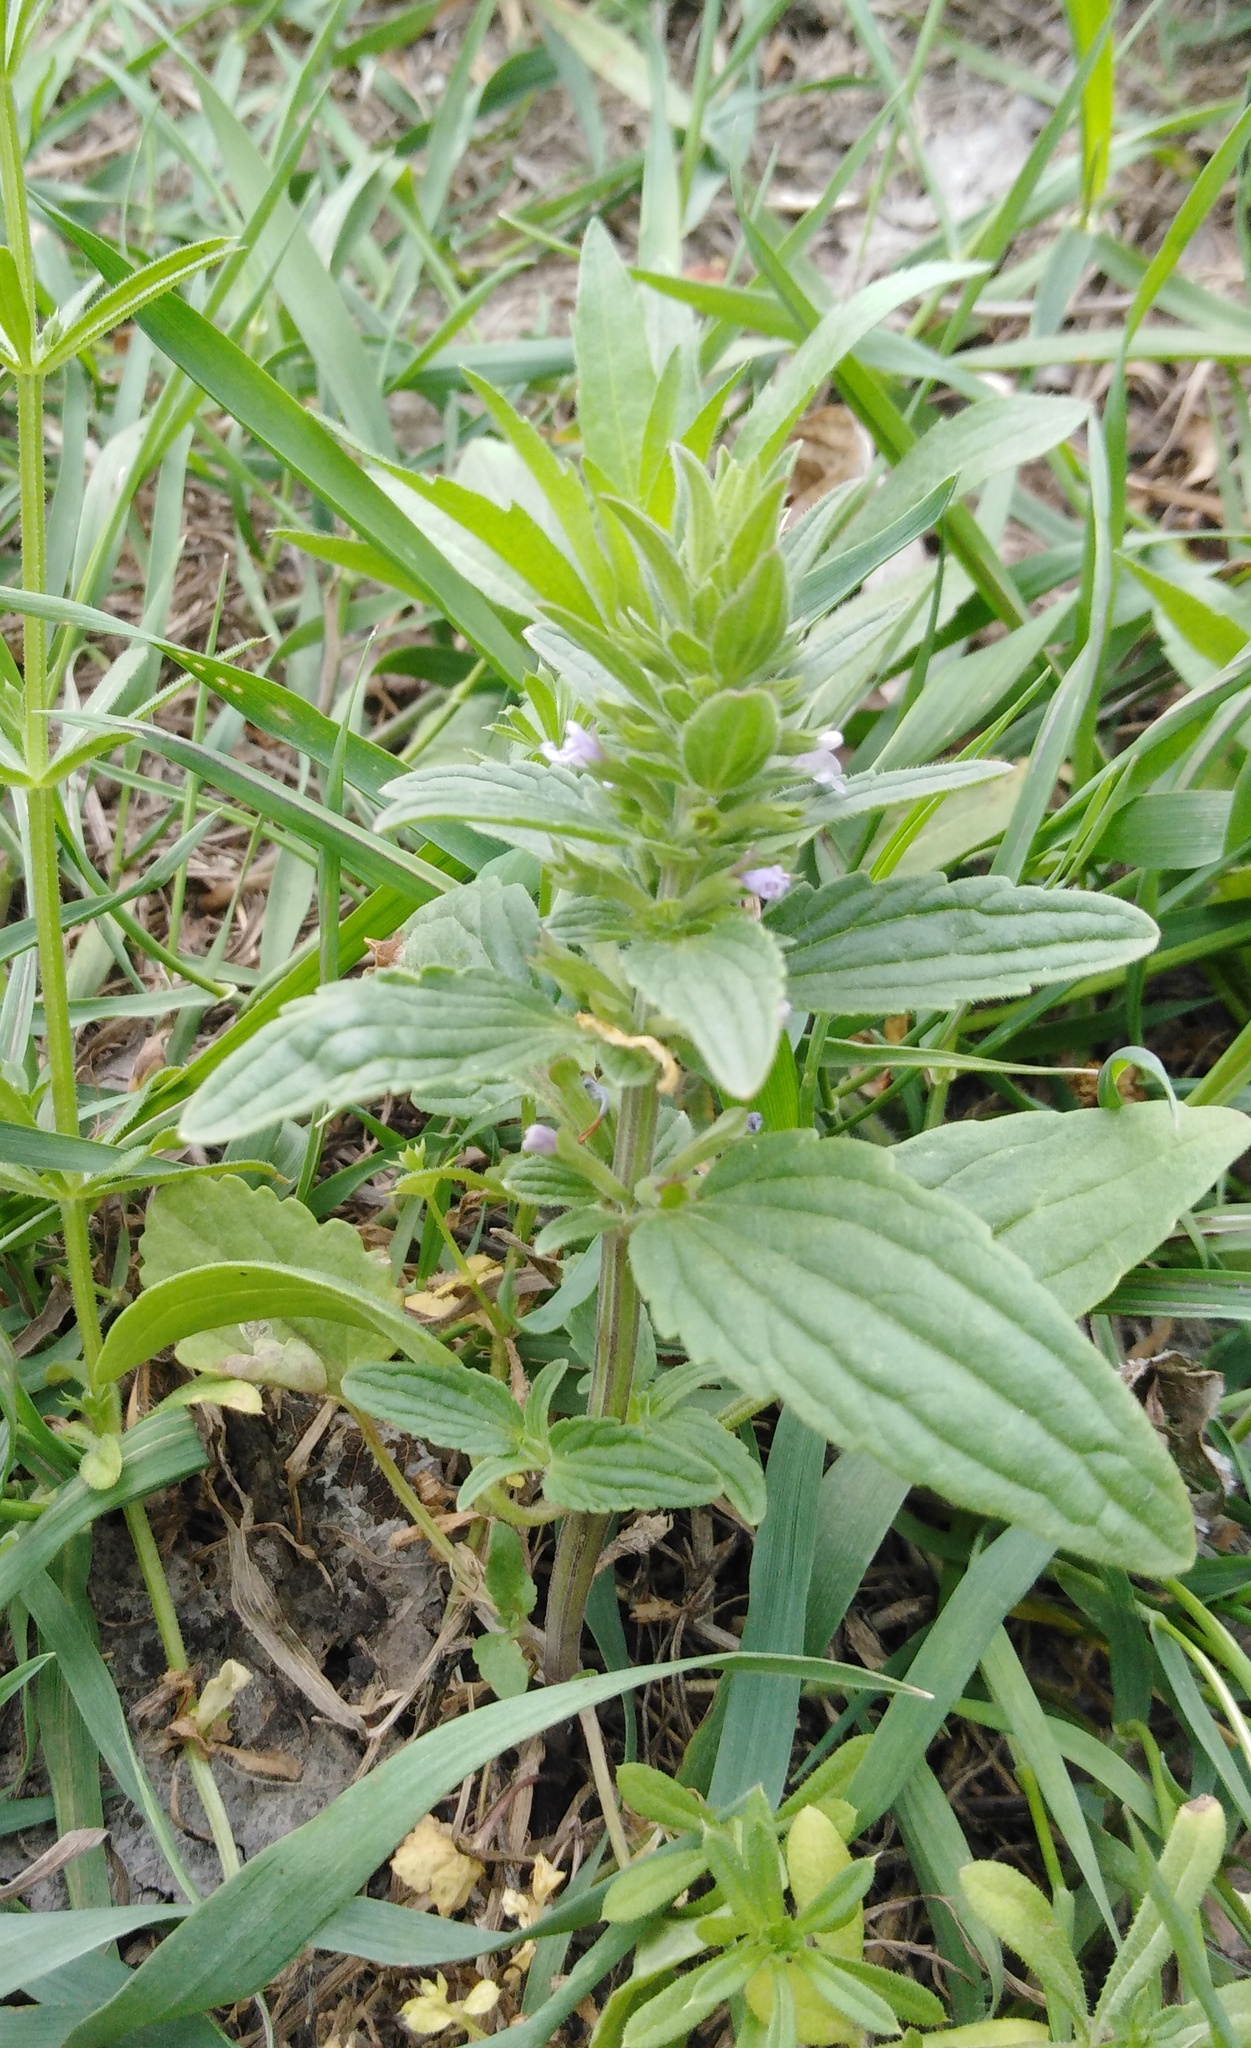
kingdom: Plantae
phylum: Tracheophyta
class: Magnoliopsida
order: Lamiales
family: Lamiaceae
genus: Dracocephalum
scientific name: Dracocephalum thymiflorum
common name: Thymeleaf dragonhead
